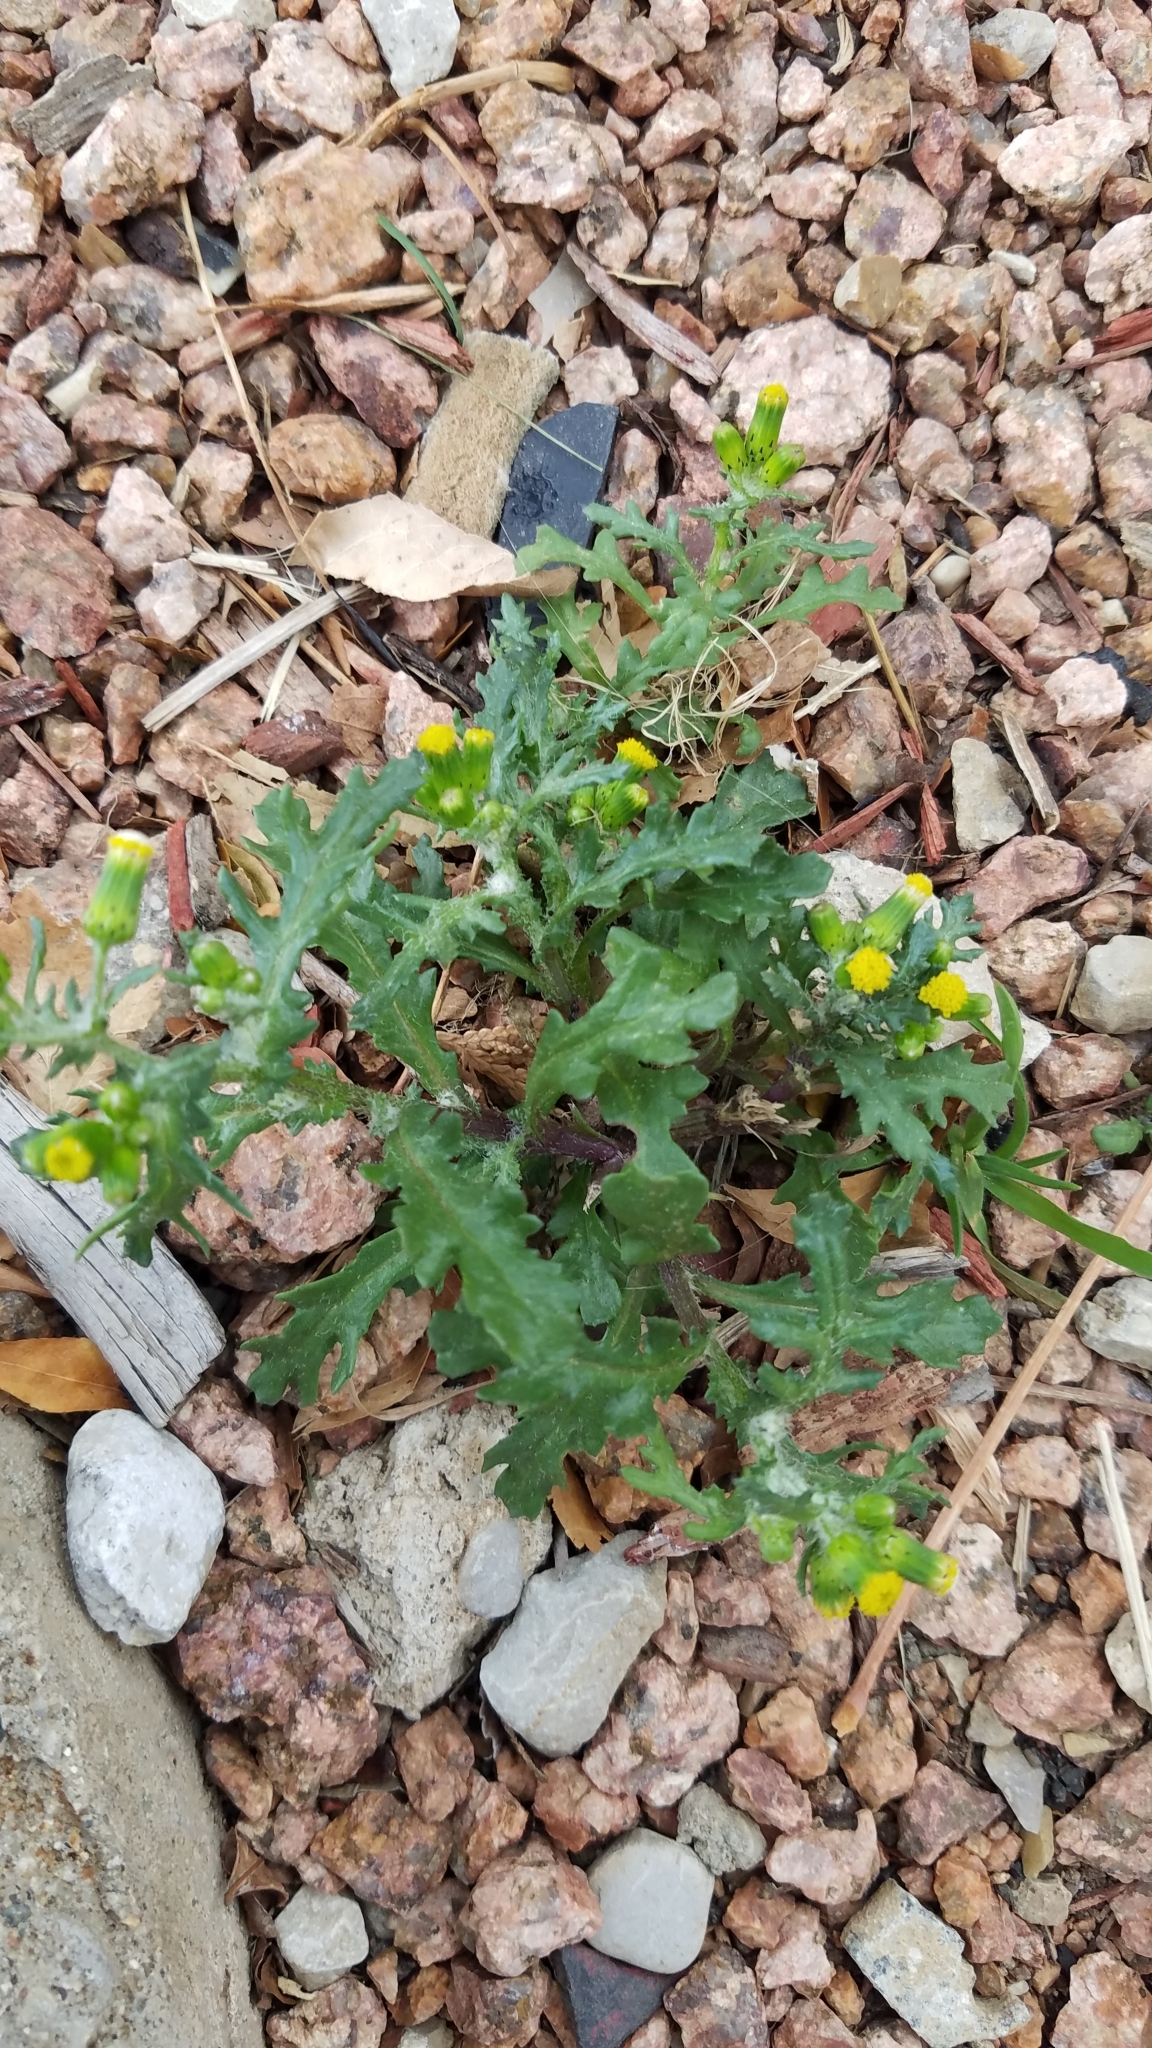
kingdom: Plantae
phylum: Tracheophyta
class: Magnoliopsida
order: Asterales
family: Asteraceae
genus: Senecio
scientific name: Senecio vulgaris
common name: Old-man-in-the-spring
